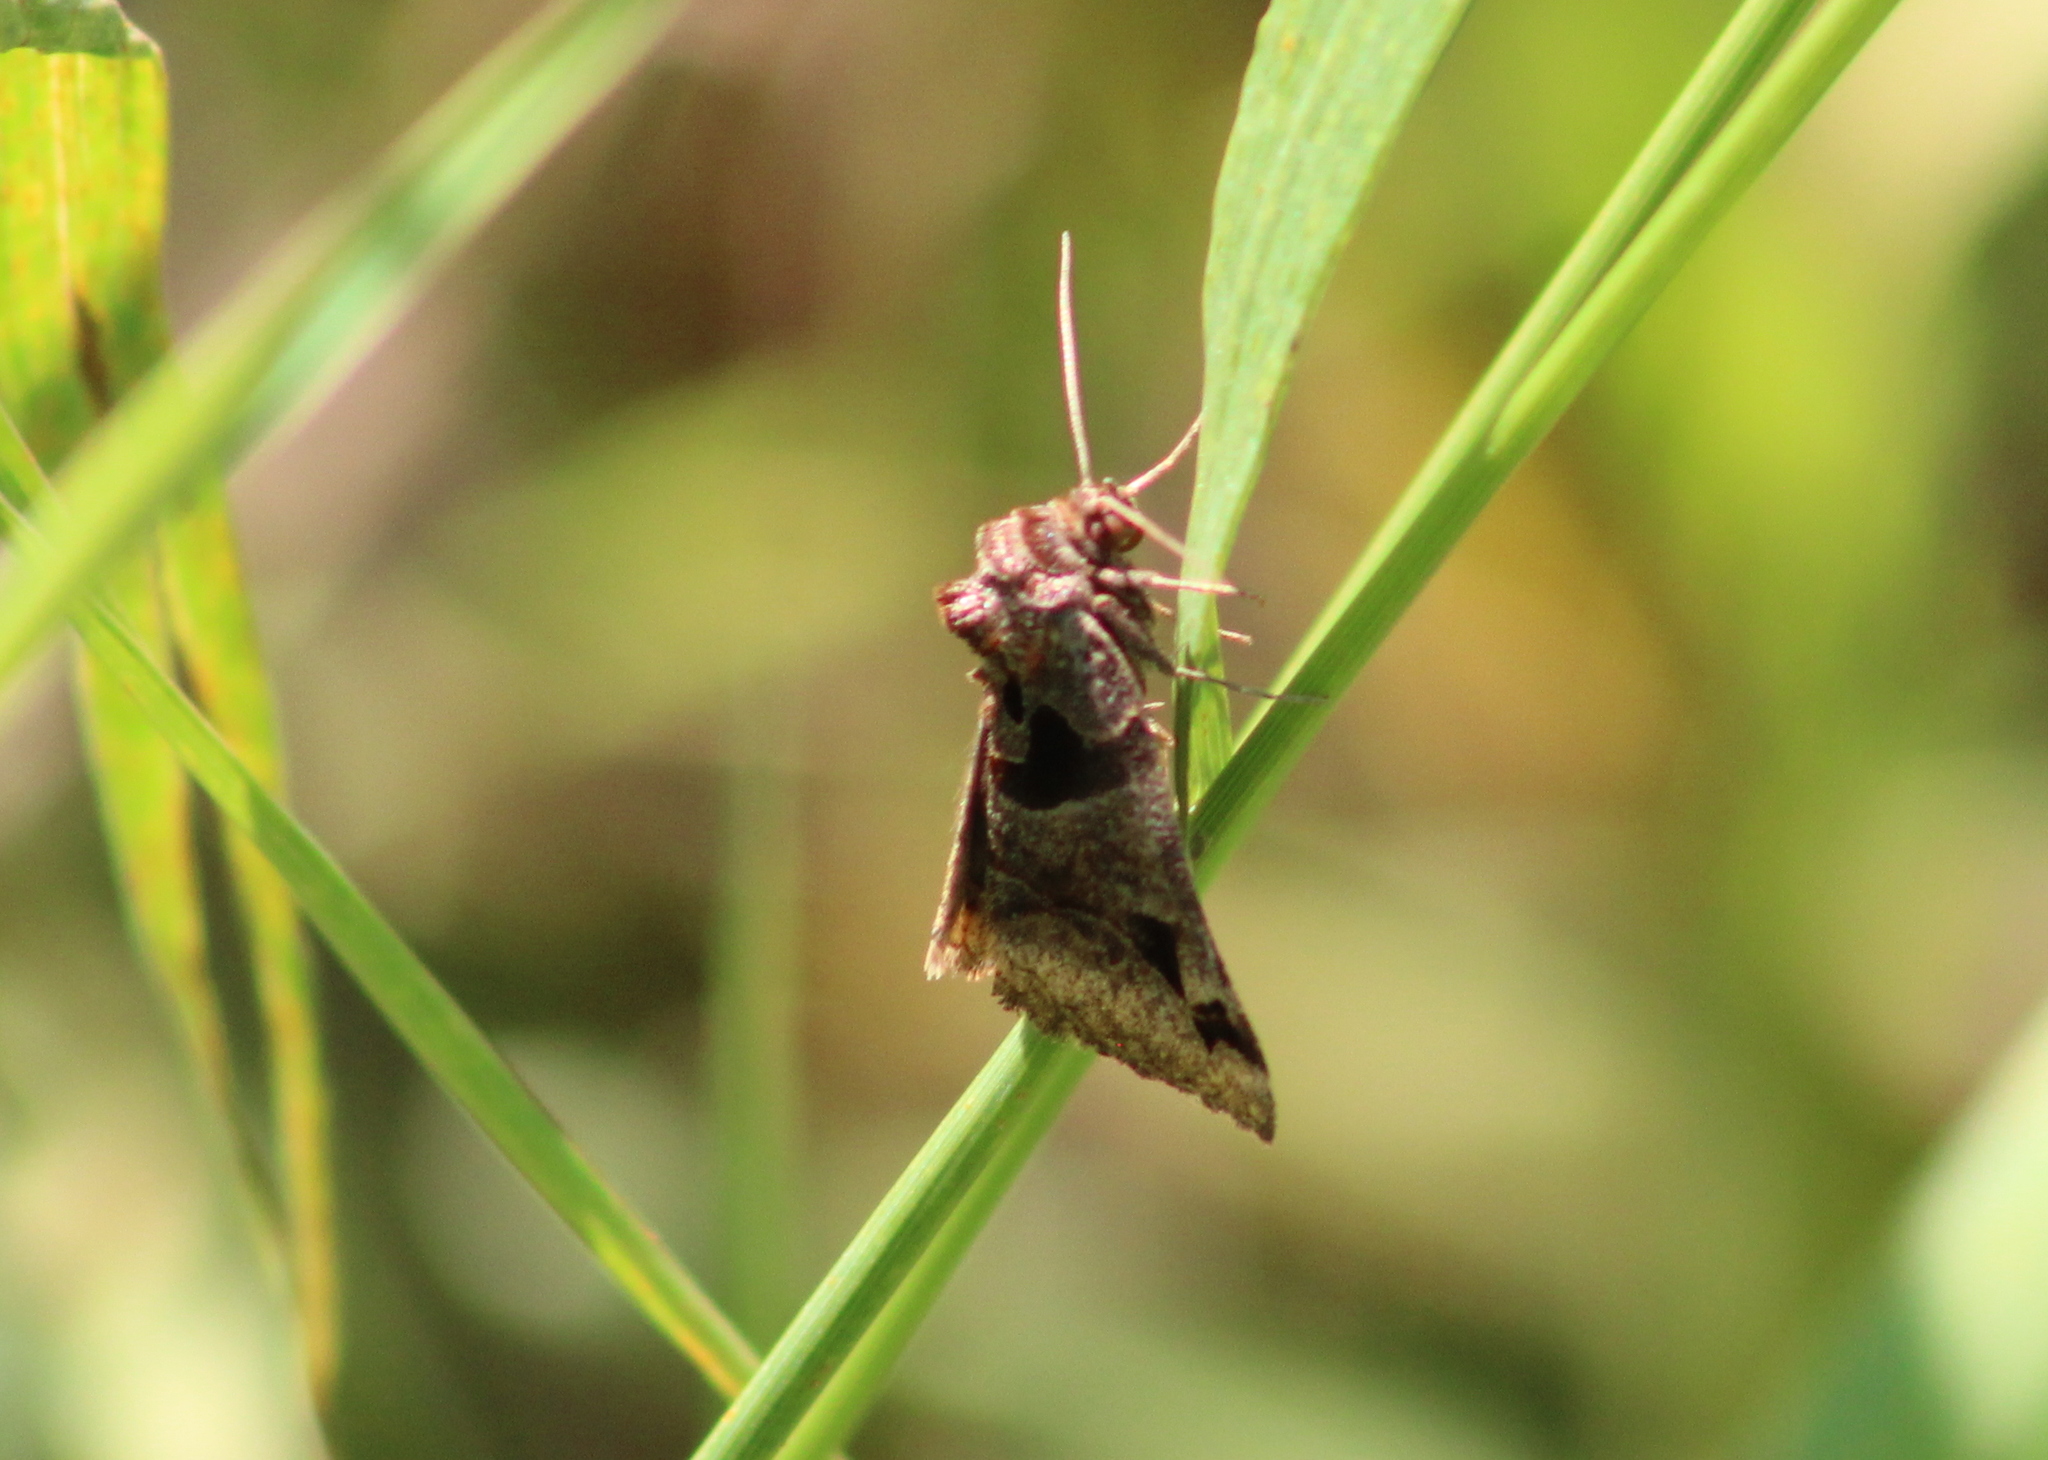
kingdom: Animalia
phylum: Arthropoda
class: Insecta
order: Lepidoptera
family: Erebidae
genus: Euclidia
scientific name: Euclidia cuspidea
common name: Toothed somberwing
